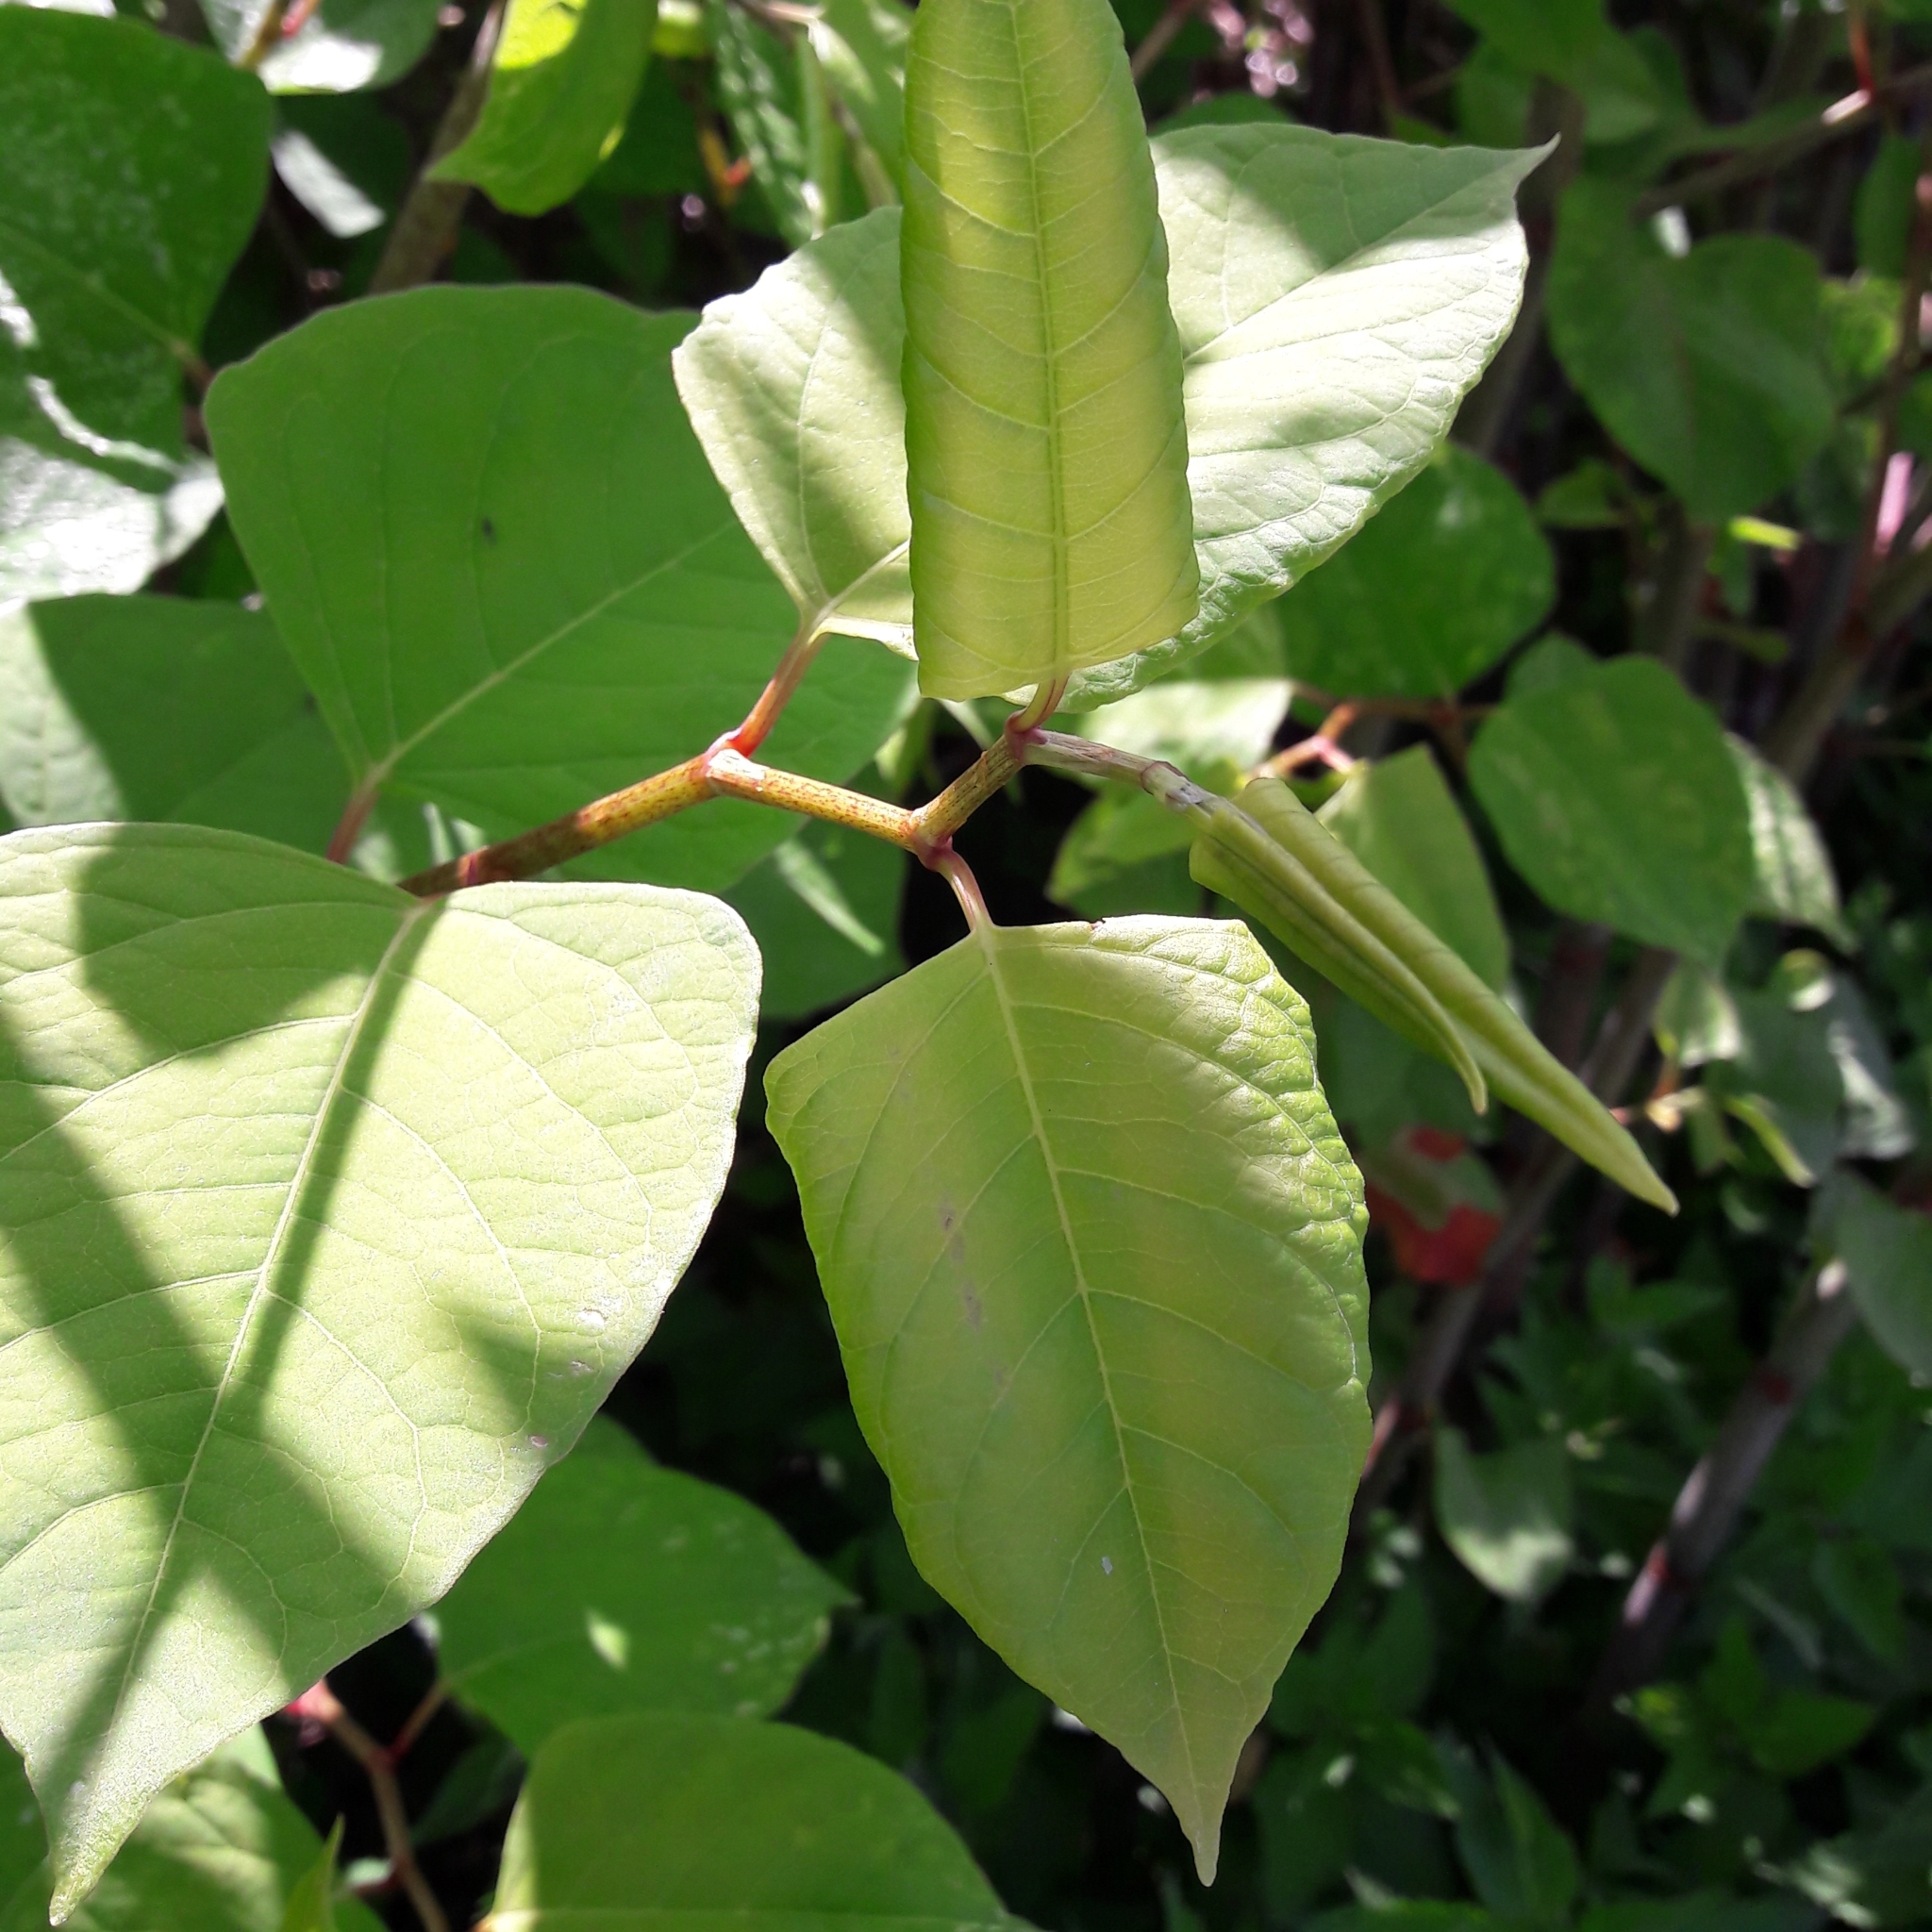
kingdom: Plantae
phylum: Tracheophyta
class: Magnoliopsida
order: Caryophyllales
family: Polygonaceae
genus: Reynoutria
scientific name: Reynoutria japonica
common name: Japanese knotweed
